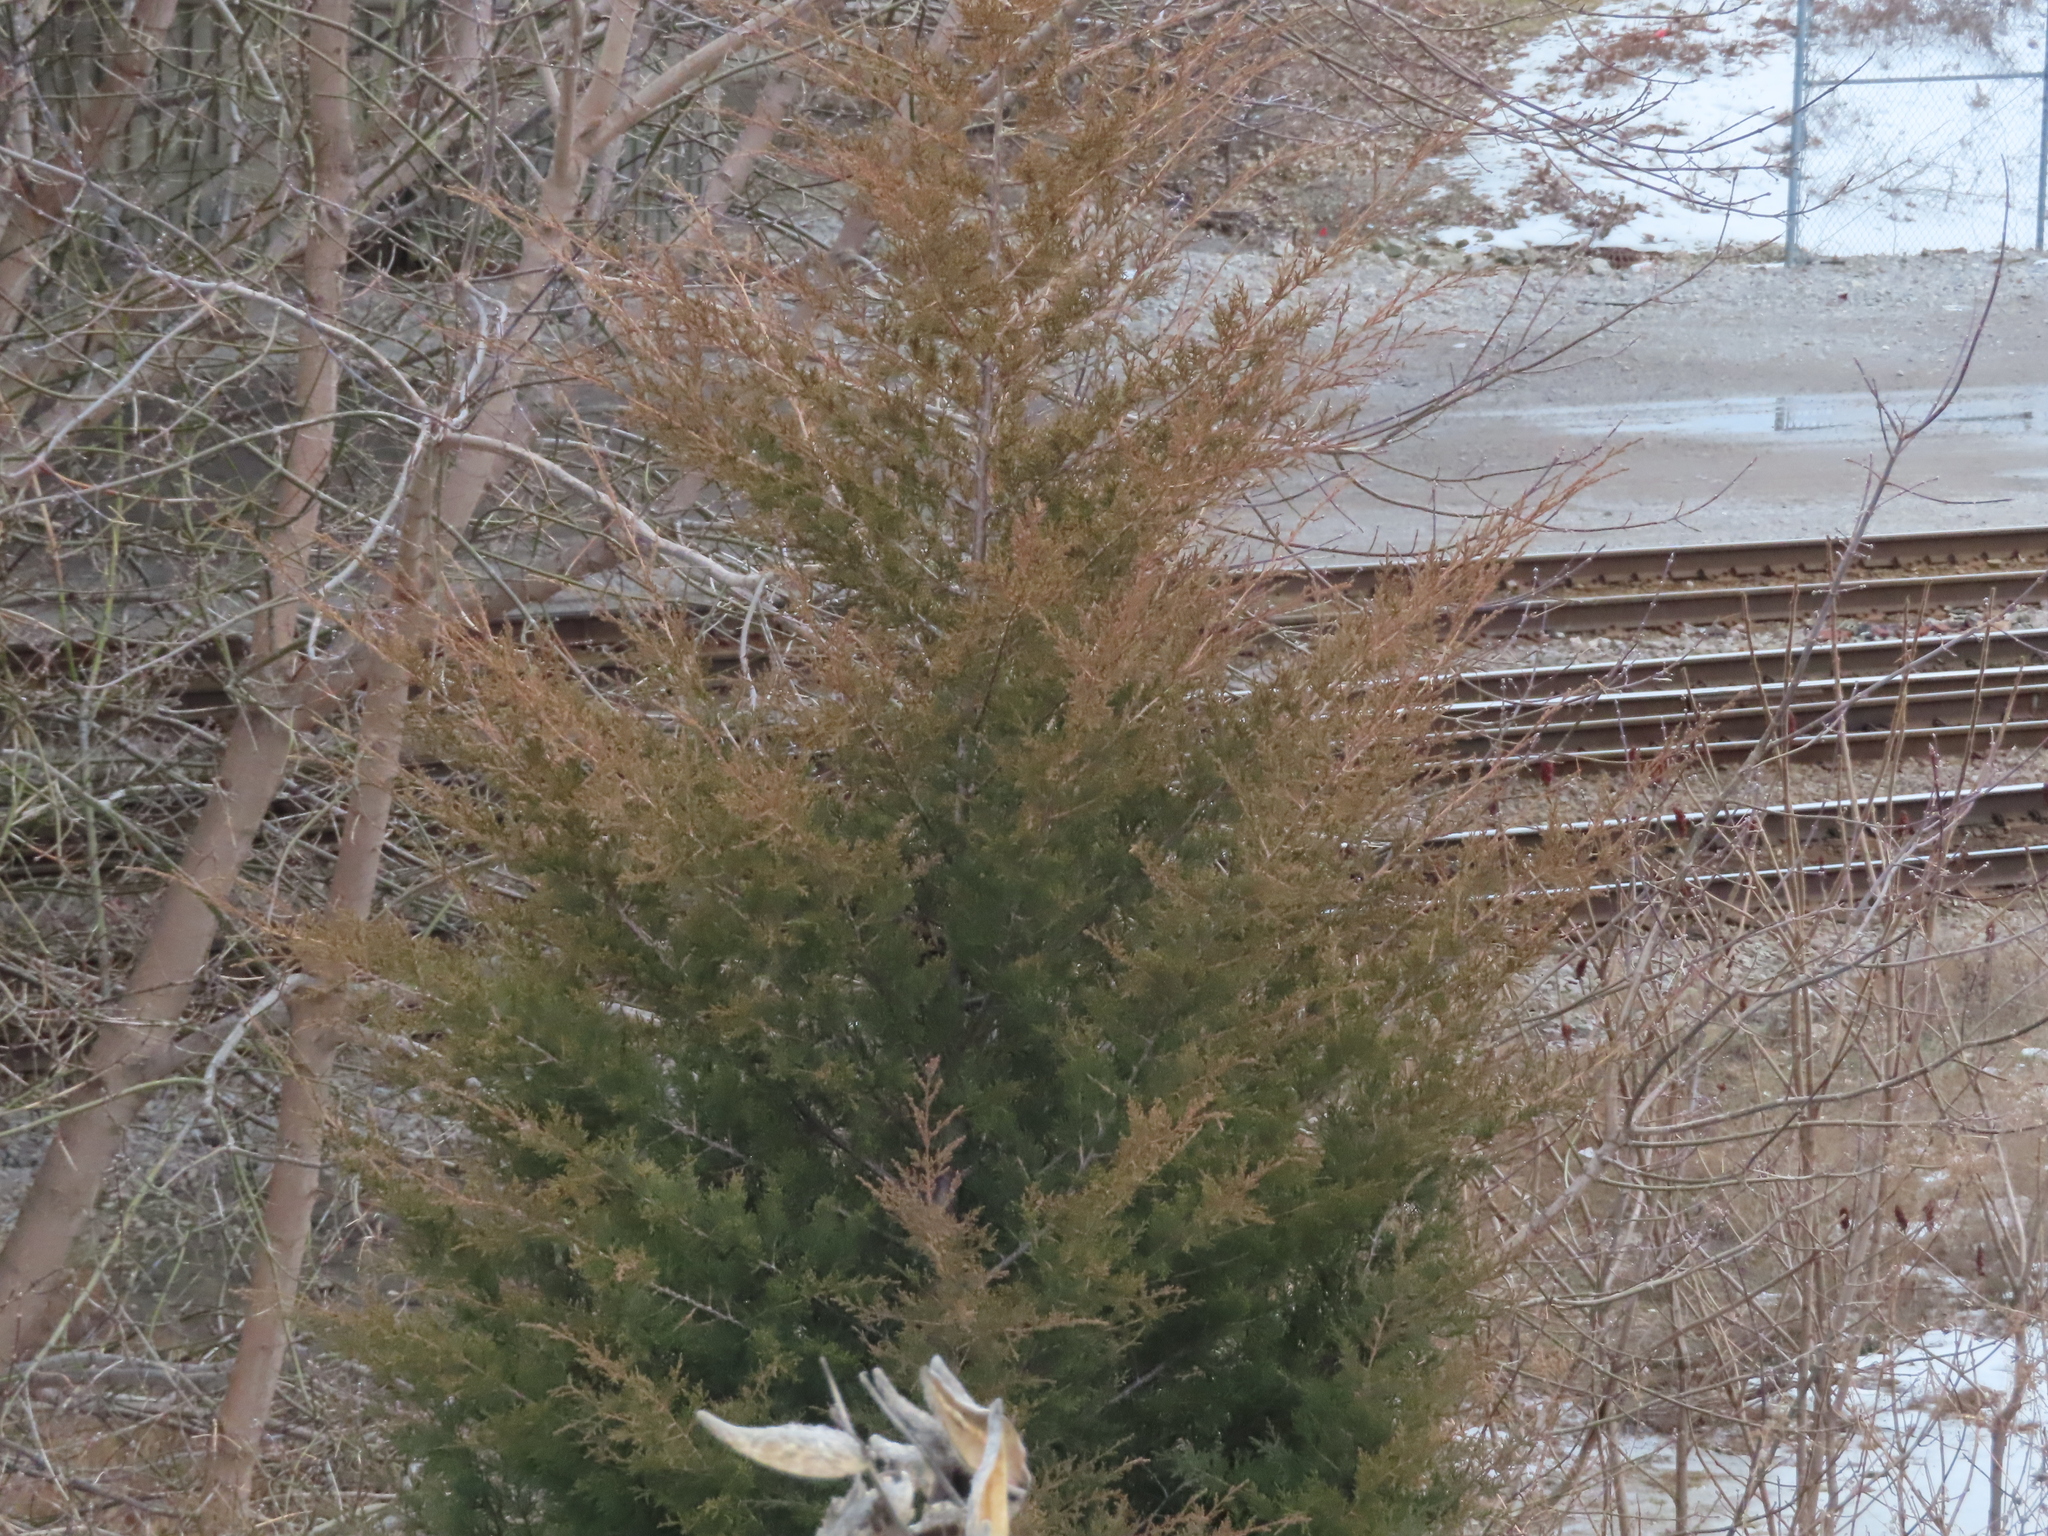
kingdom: Plantae
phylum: Tracheophyta
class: Pinopsida
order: Pinales
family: Cupressaceae
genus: Juniperus
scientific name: Juniperus virginiana
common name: Red juniper
